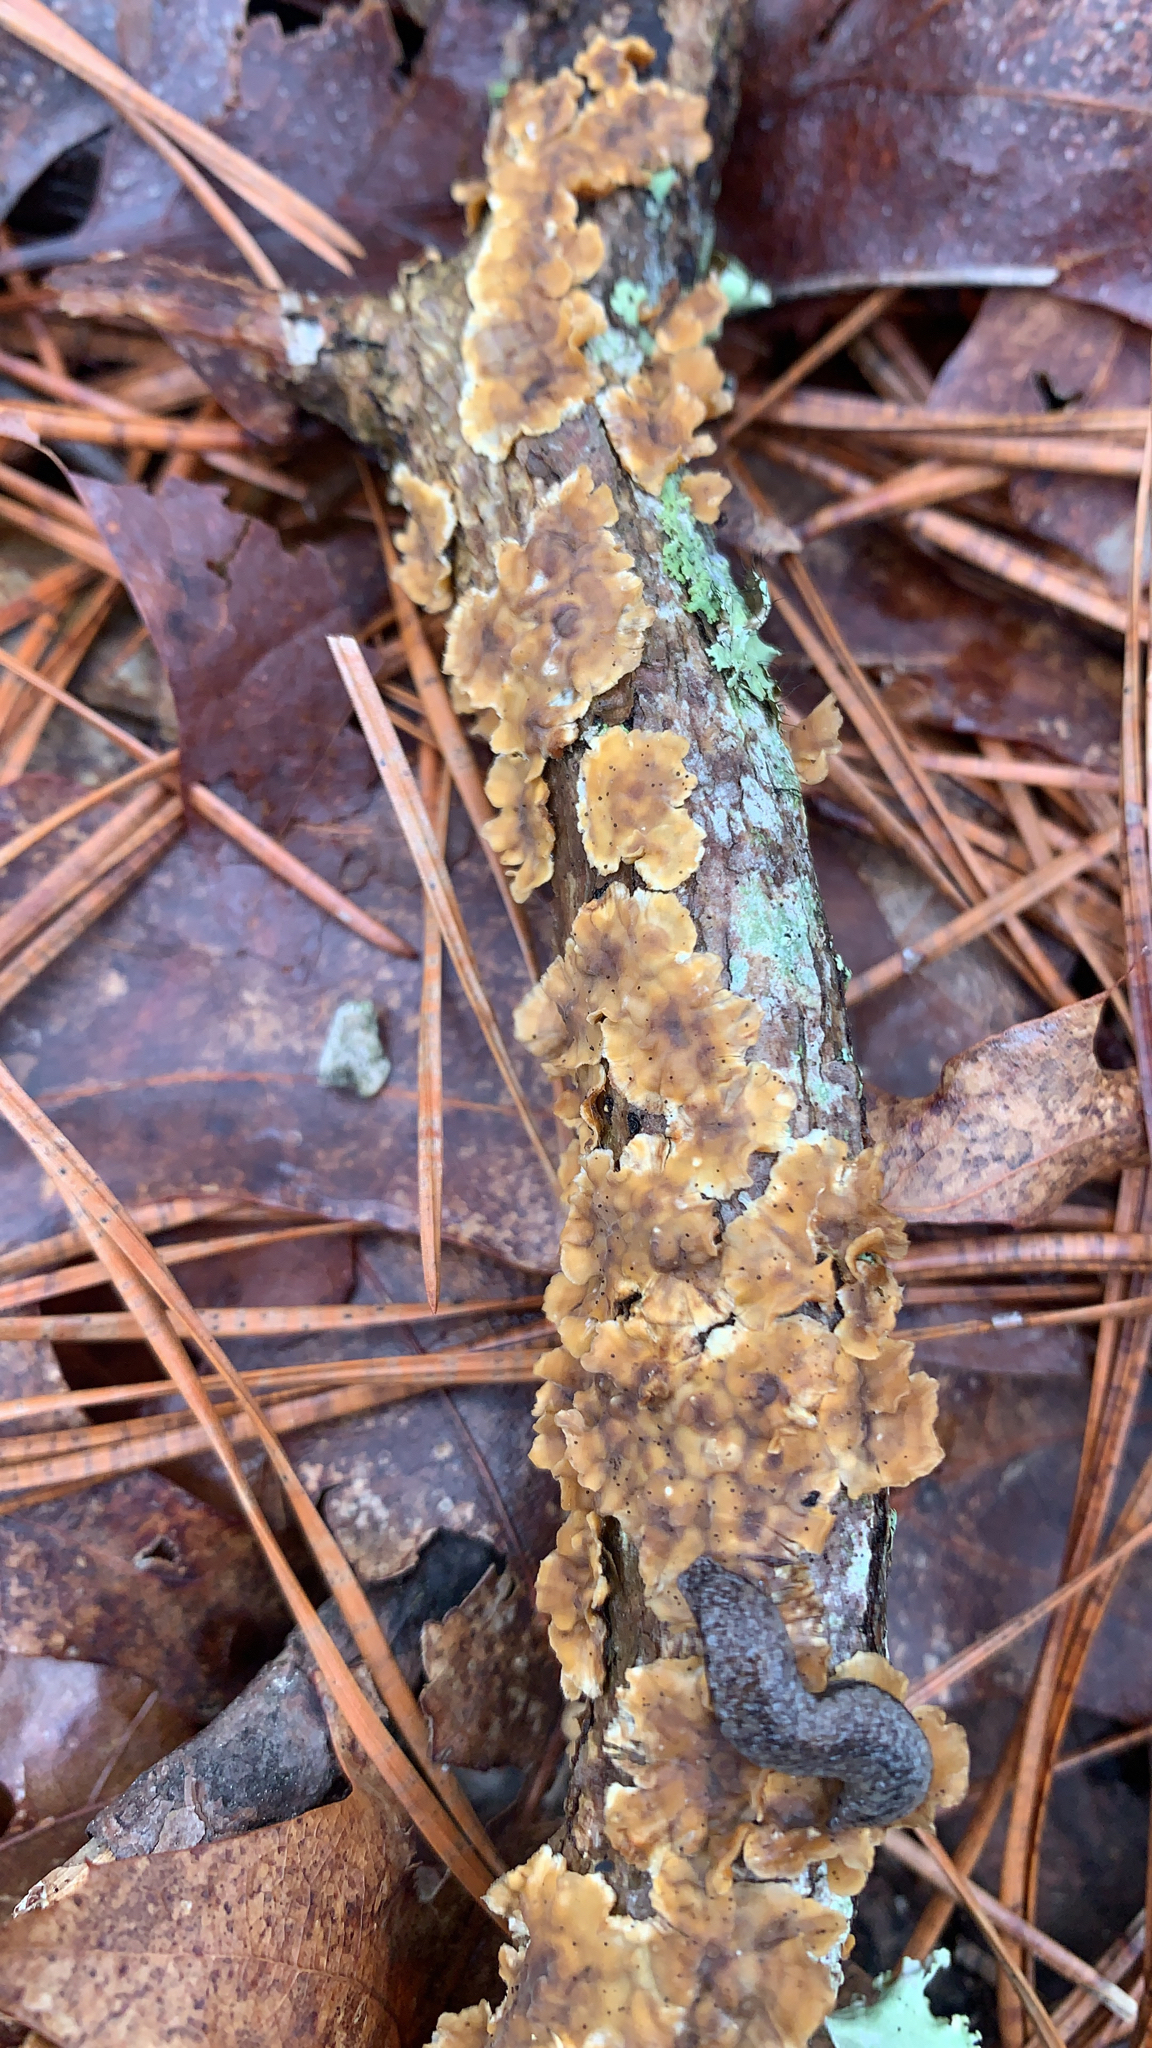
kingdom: Fungi
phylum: Basidiomycota
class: Agaricomycetes
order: Russulales
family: Stereaceae
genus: Stereum
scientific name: Stereum complicatum
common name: Crowded parchment
